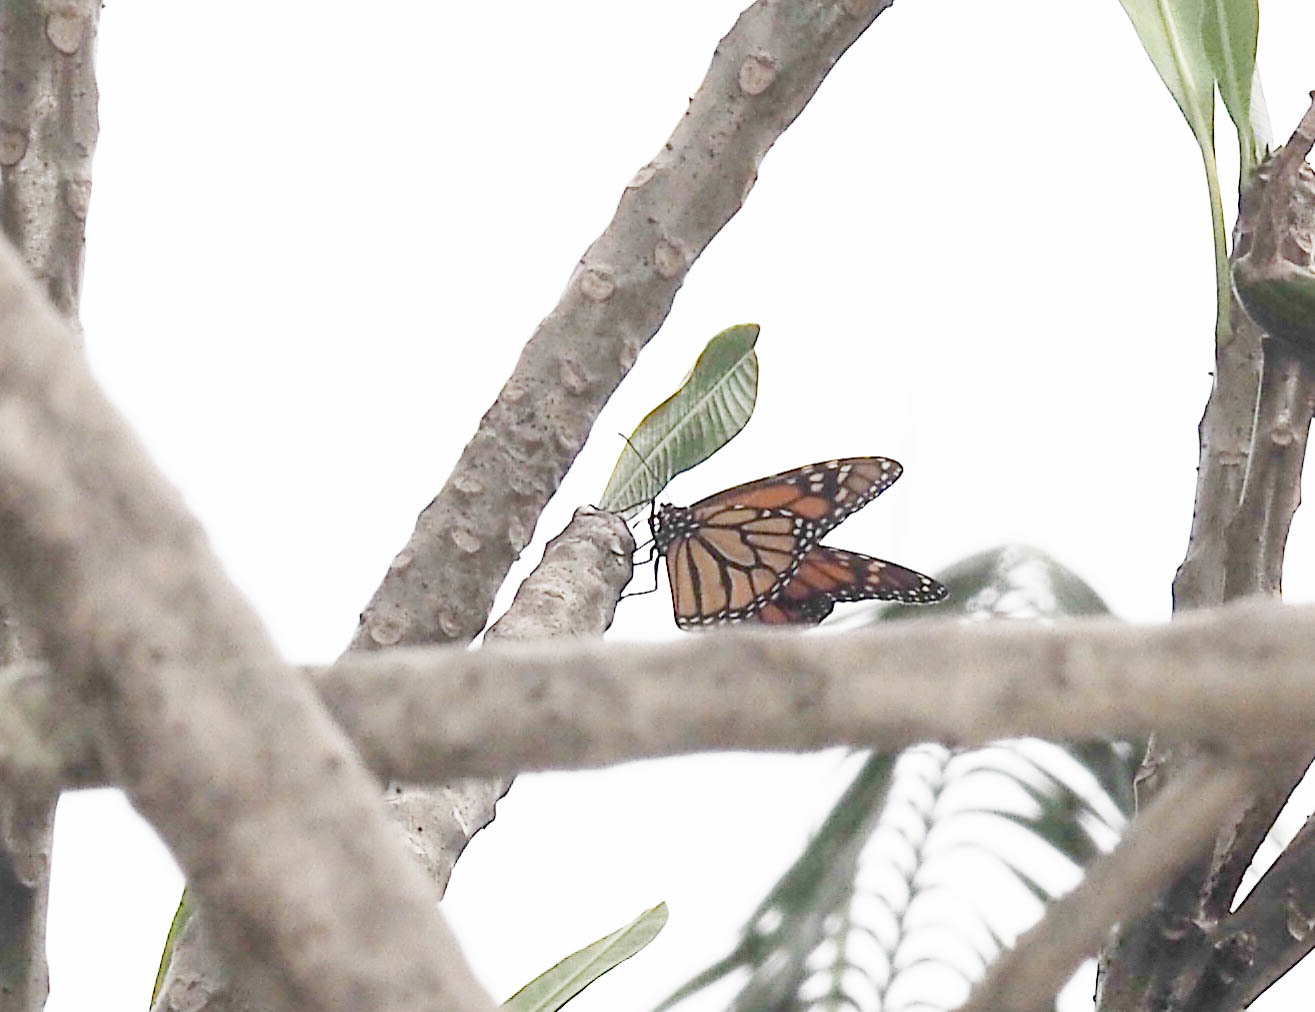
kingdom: Animalia
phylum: Arthropoda
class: Insecta
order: Lepidoptera
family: Nymphalidae
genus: Danaus
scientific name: Danaus plexippus
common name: Monarch
